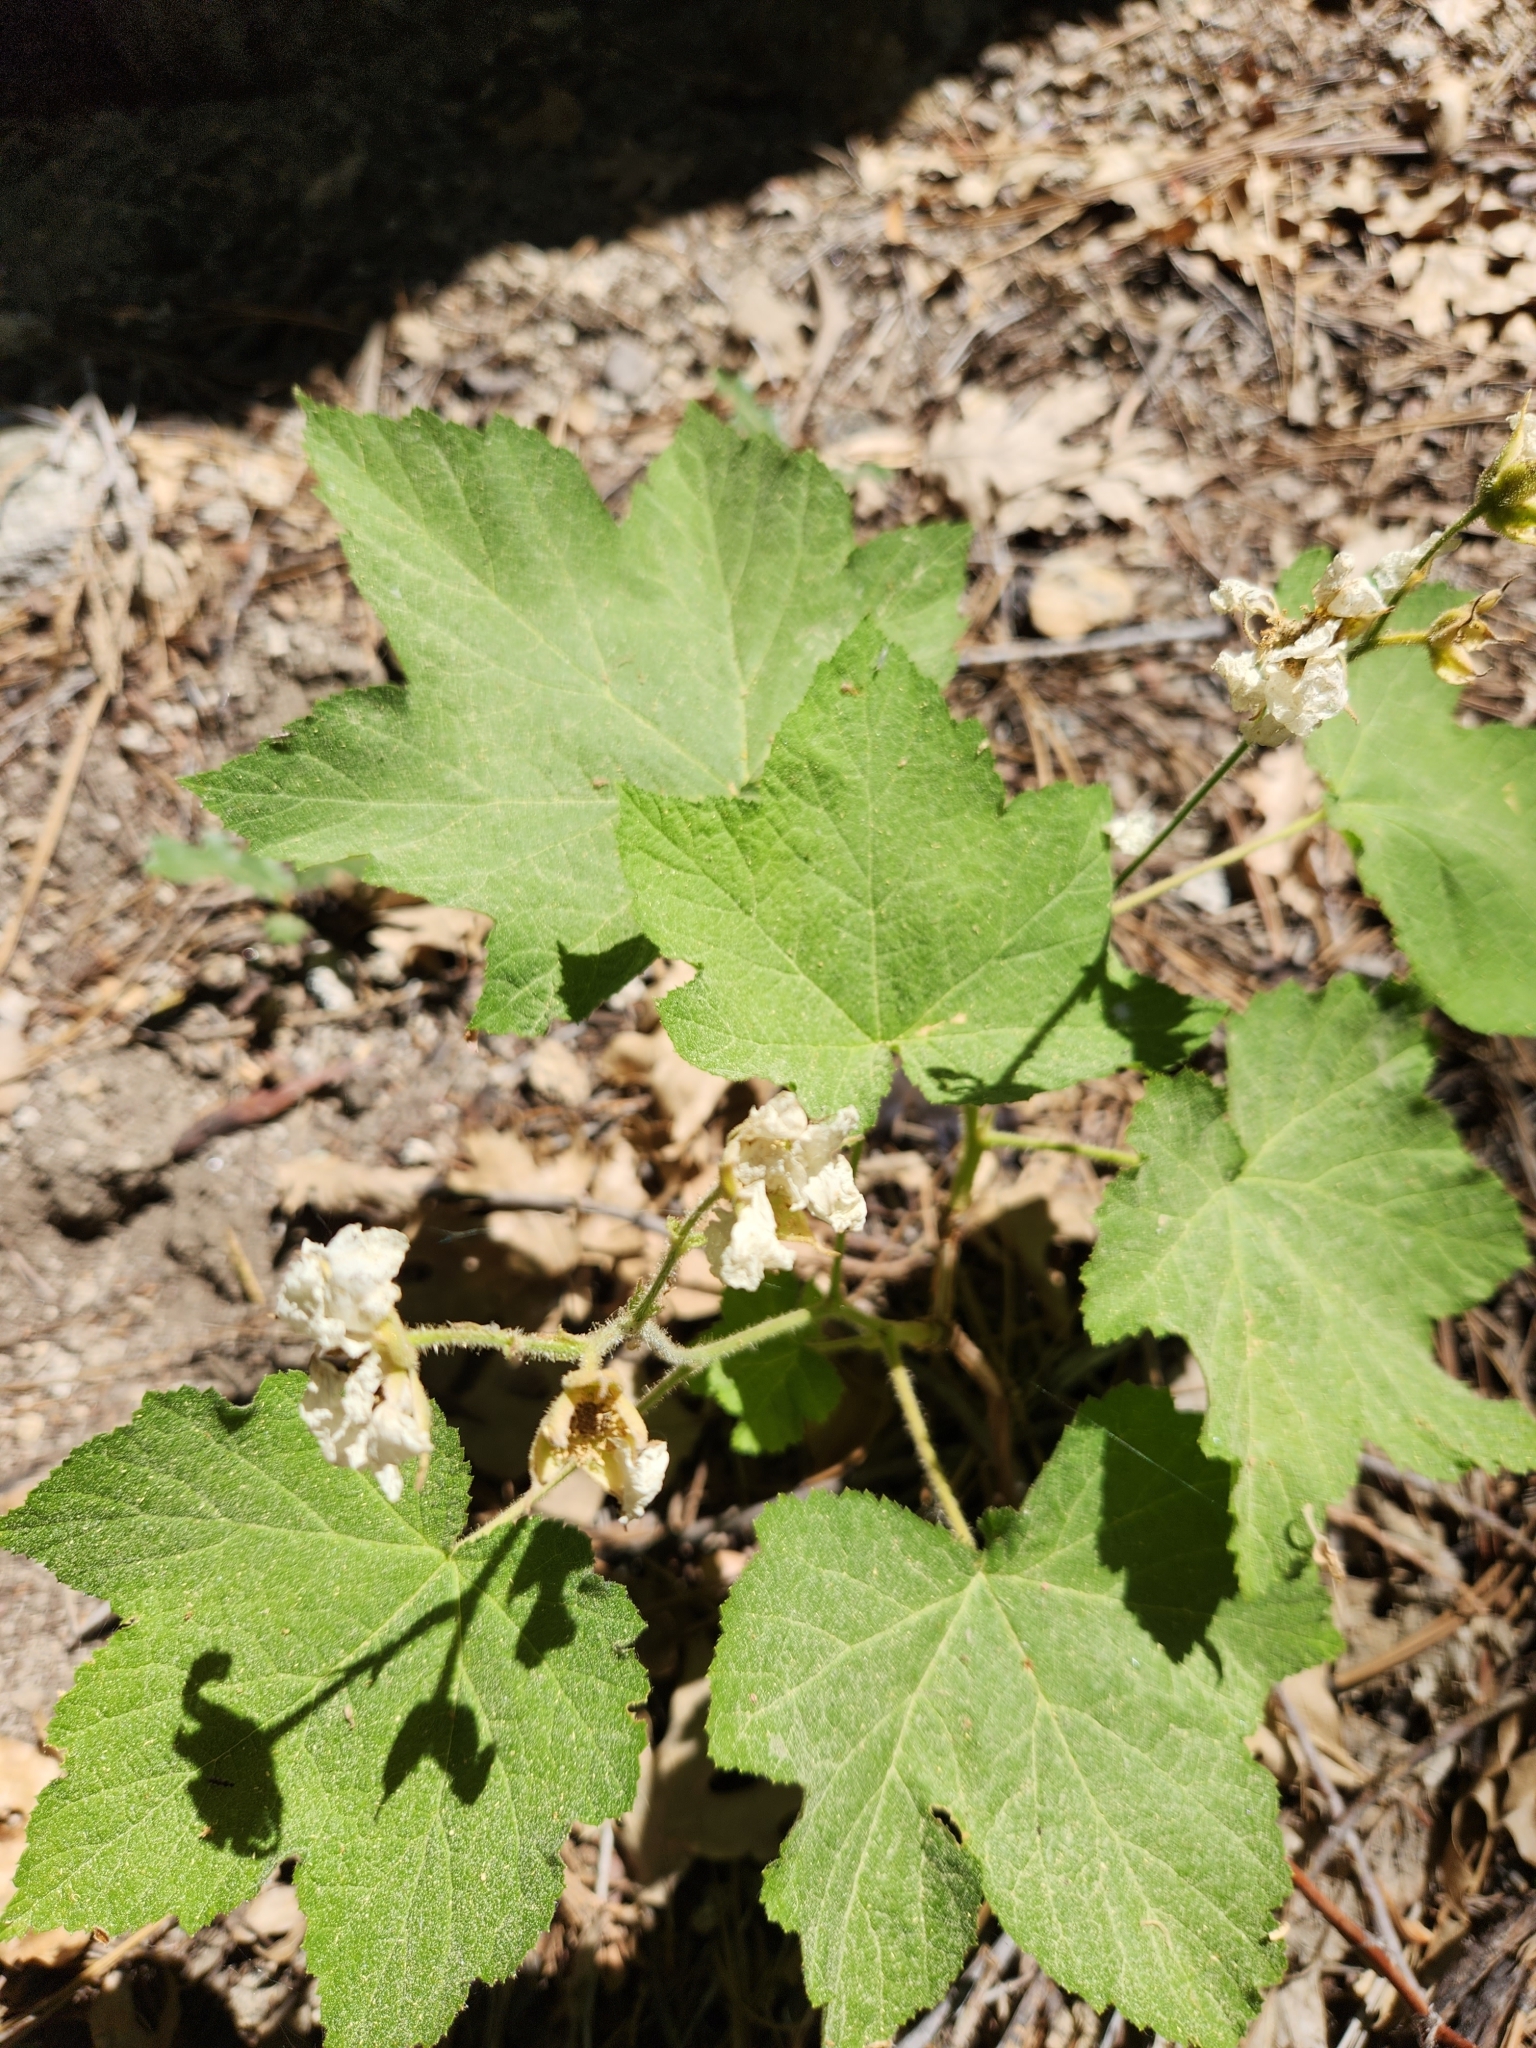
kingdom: Plantae
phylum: Tracheophyta
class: Magnoliopsida
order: Rosales
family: Rosaceae
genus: Rubus
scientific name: Rubus parviflorus
